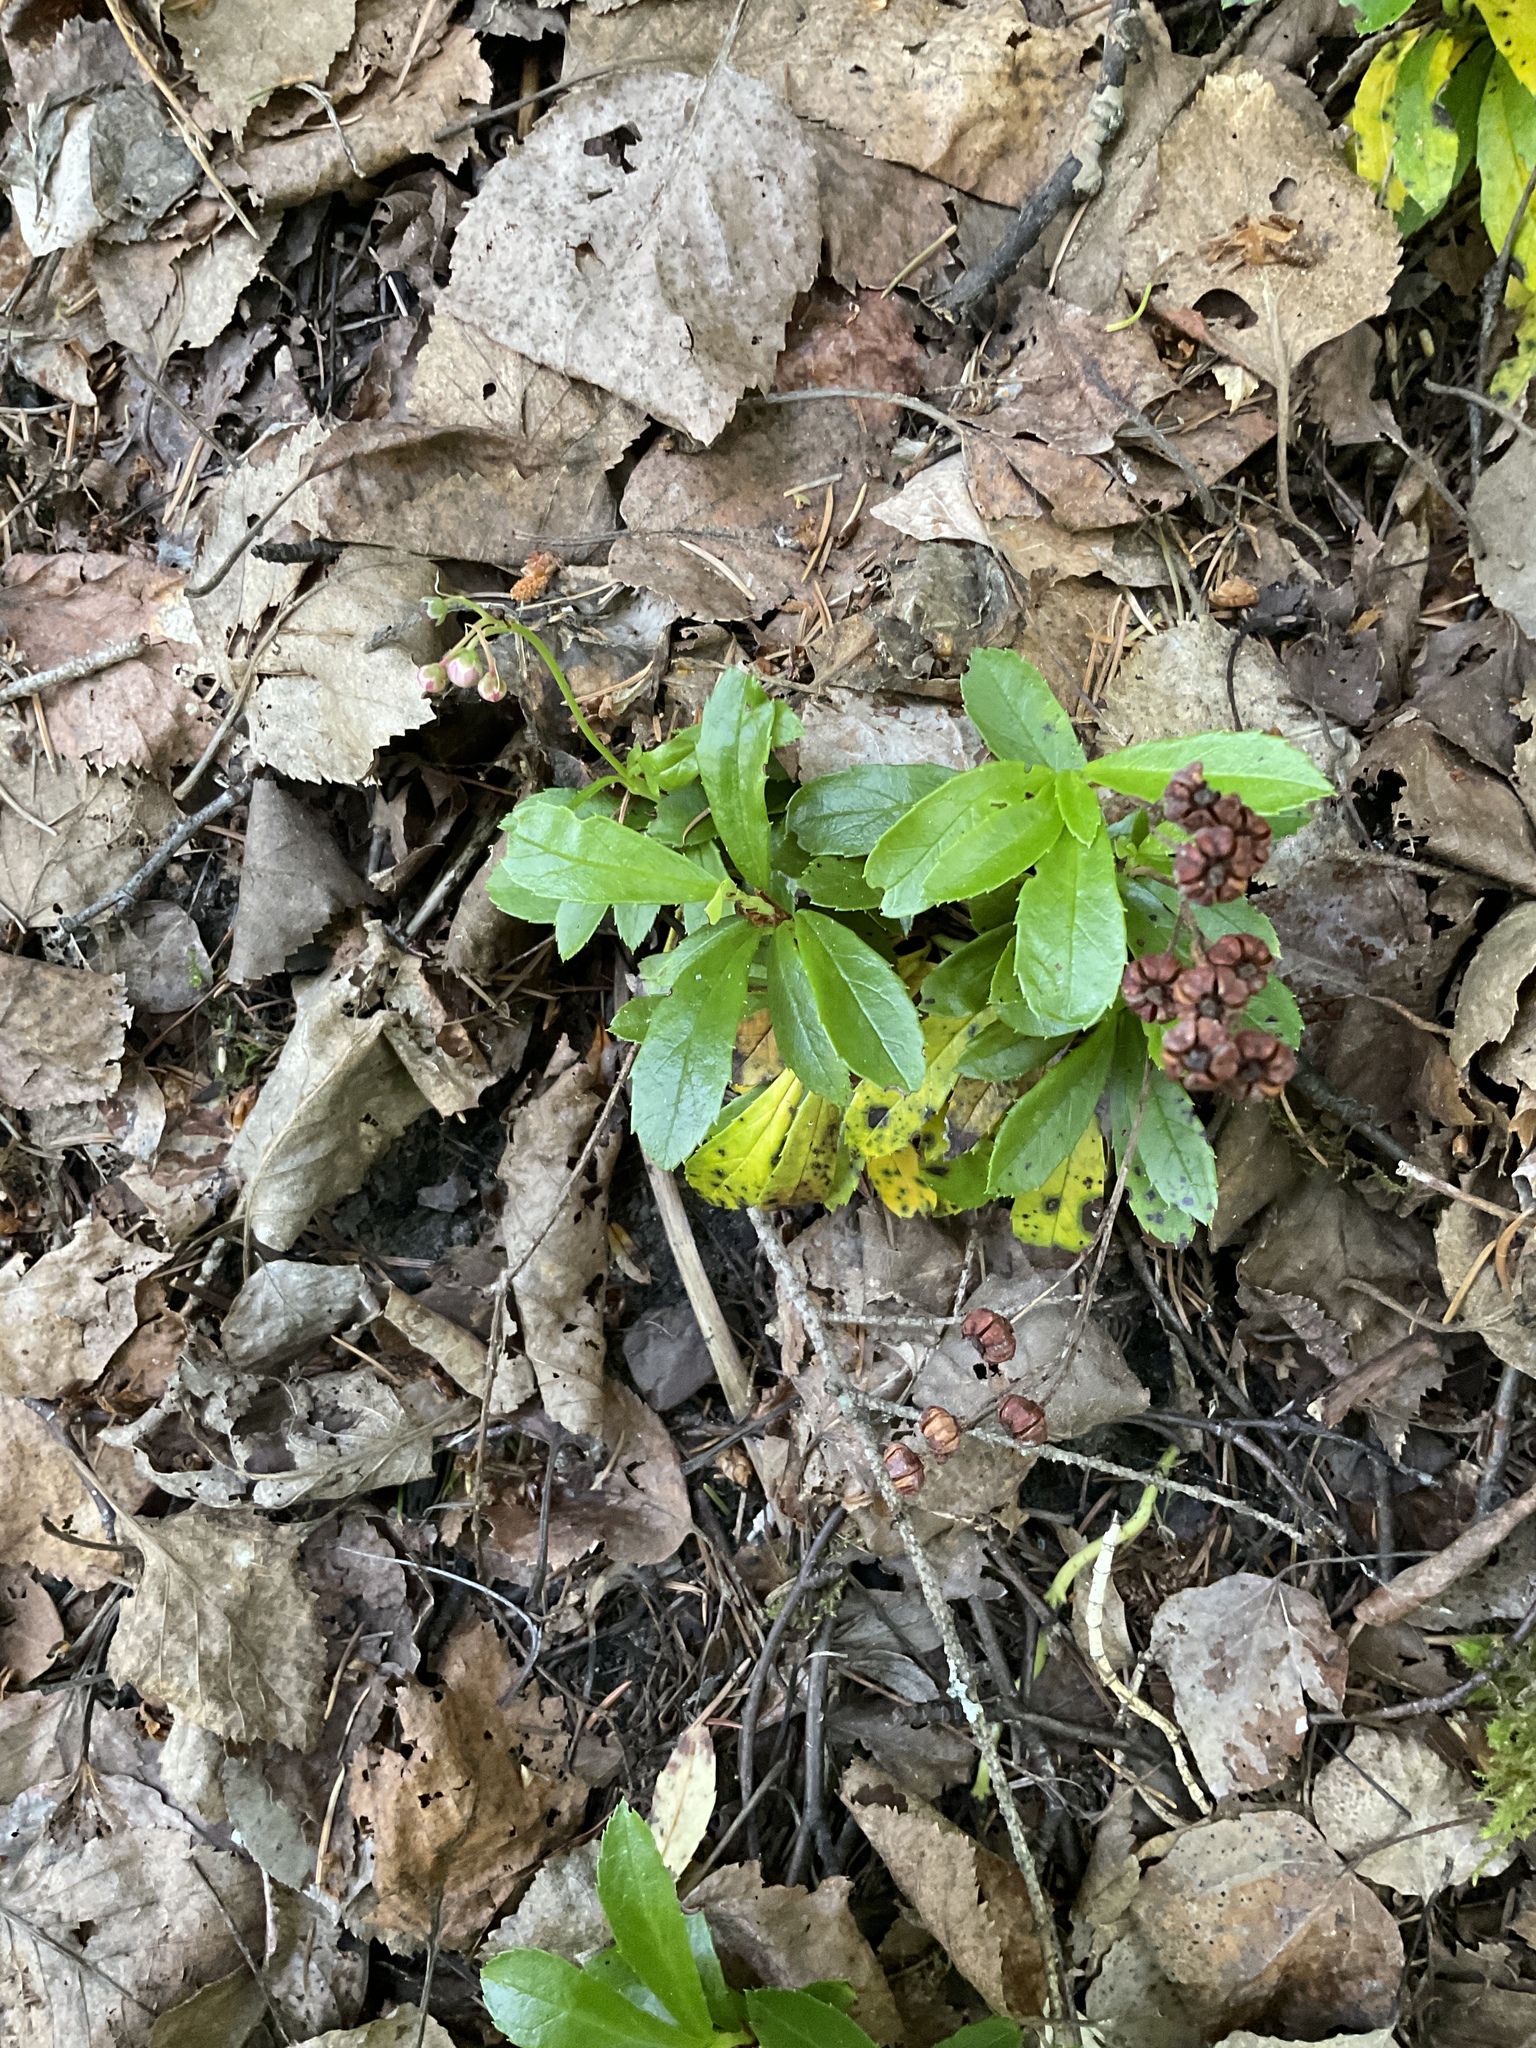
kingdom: Plantae
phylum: Tracheophyta
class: Magnoliopsida
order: Ericales
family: Ericaceae
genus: Chimaphila
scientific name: Chimaphila umbellata
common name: Pipsissewa
